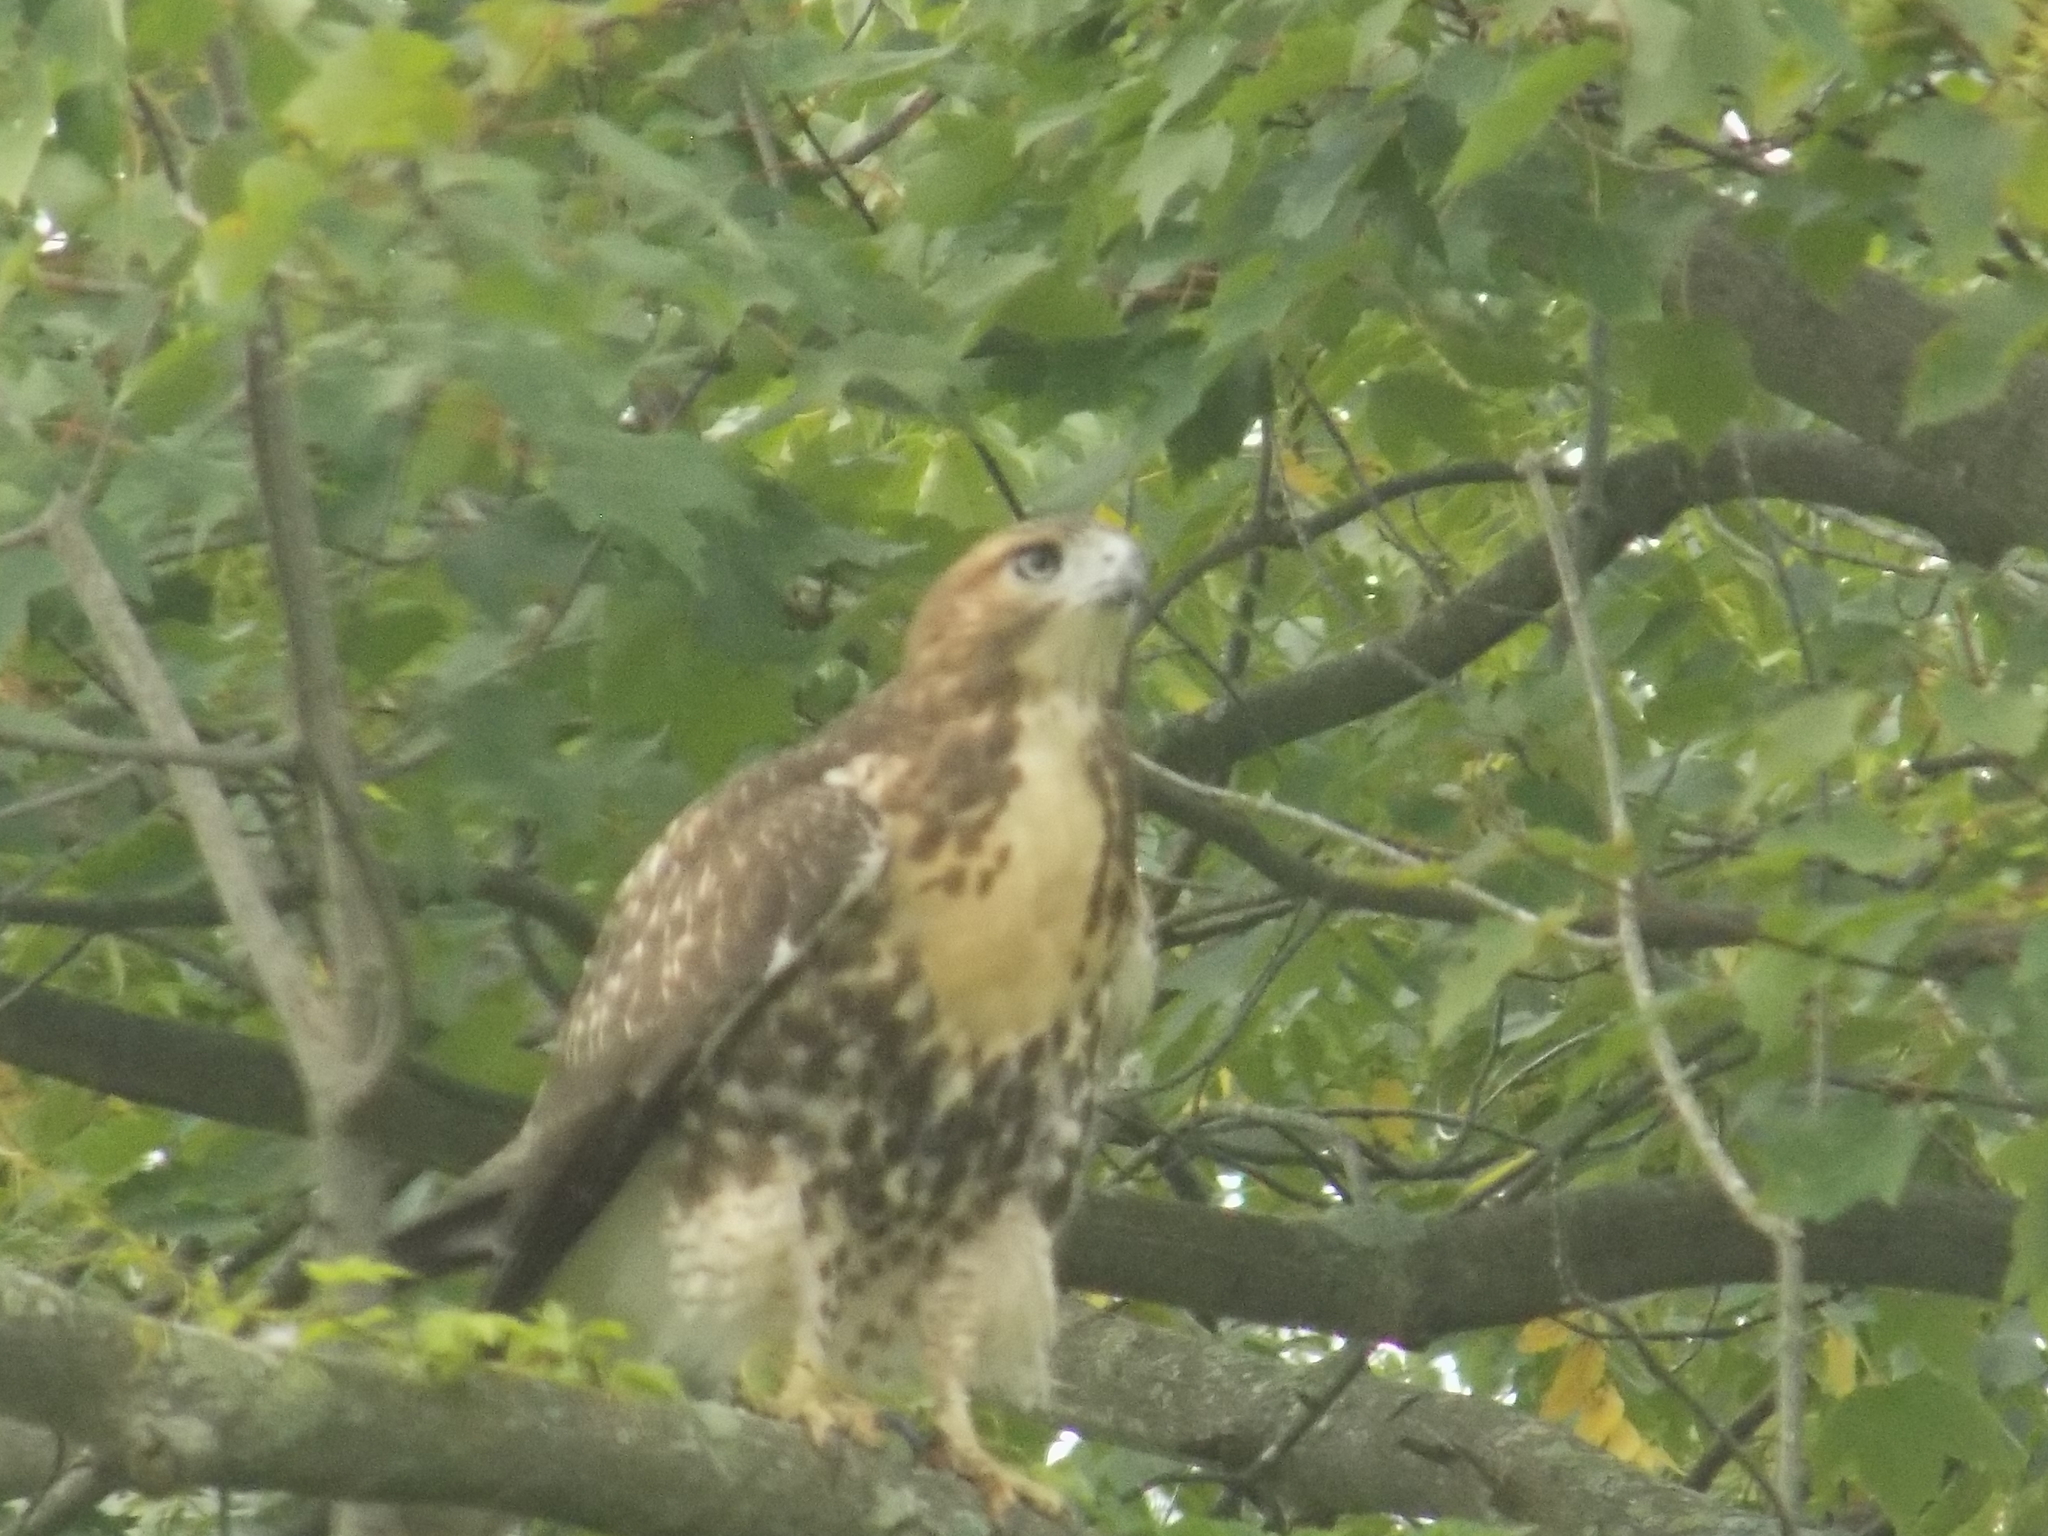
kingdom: Animalia
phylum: Chordata
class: Aves
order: Accipitriformes
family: Accipitridae
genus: Buteo
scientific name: Buteo jamaicensis
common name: Red-tailed hawk
